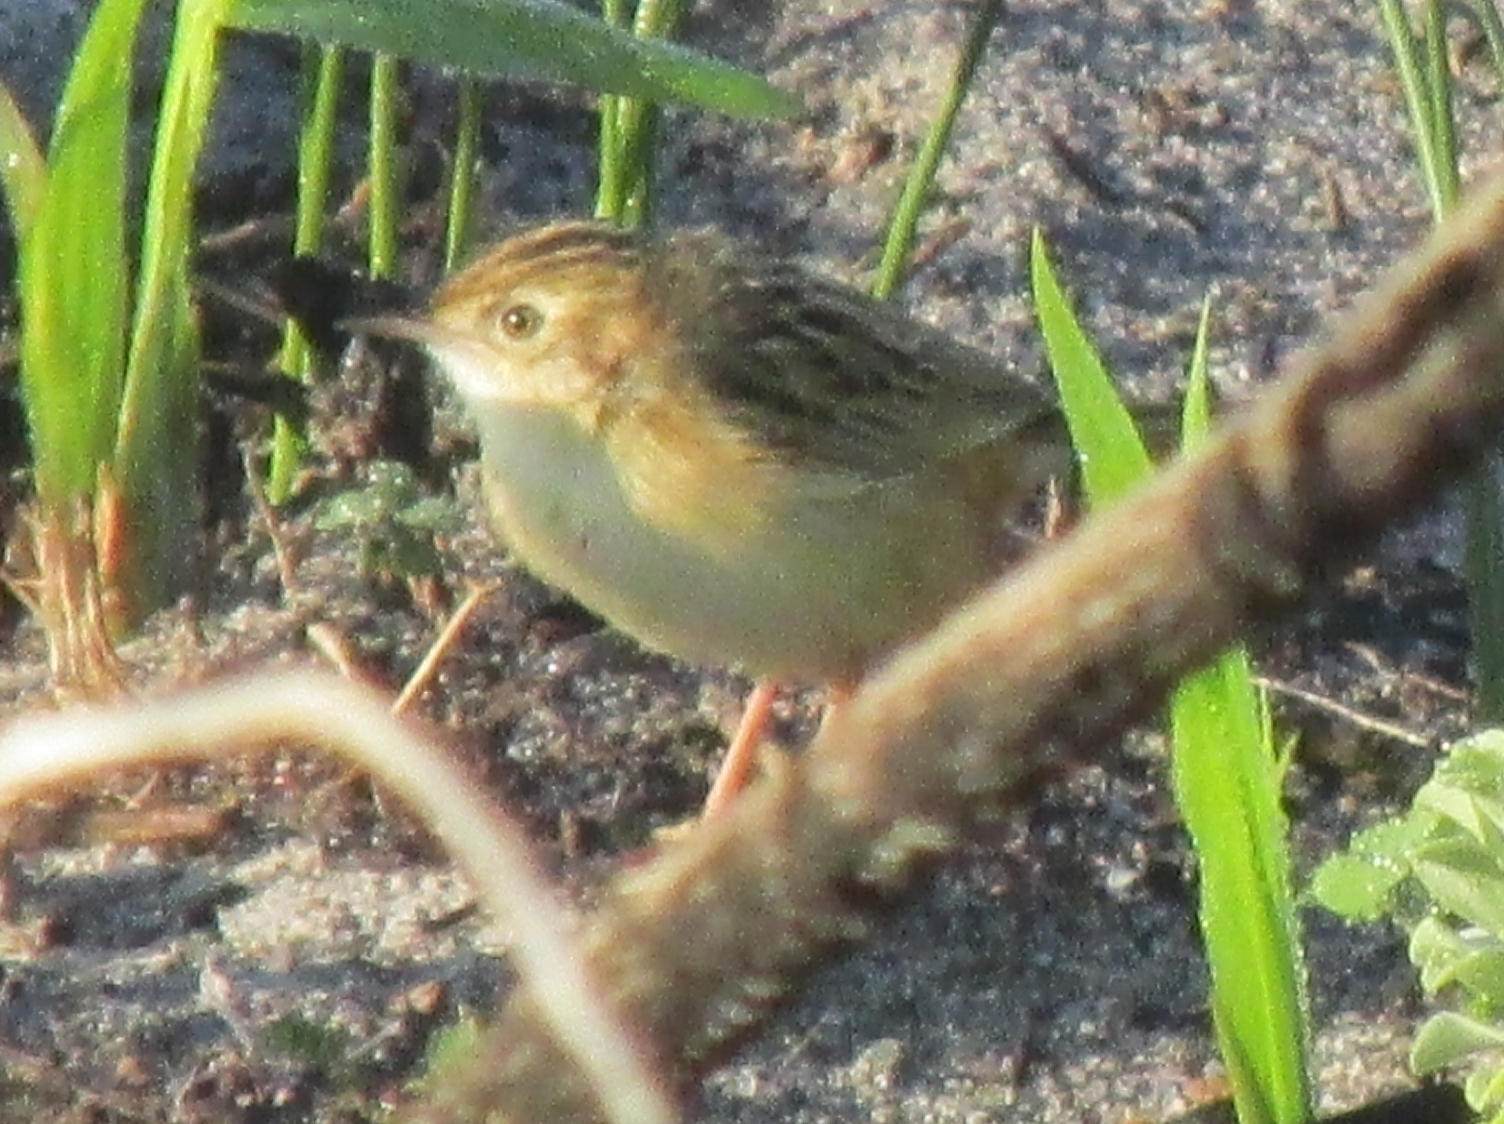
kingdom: Animalia
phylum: Chordata
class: Aves
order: Passeriformes
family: Cisticolidae
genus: Cisticola
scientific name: Cisticola juncidis
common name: Zitting cisticola
